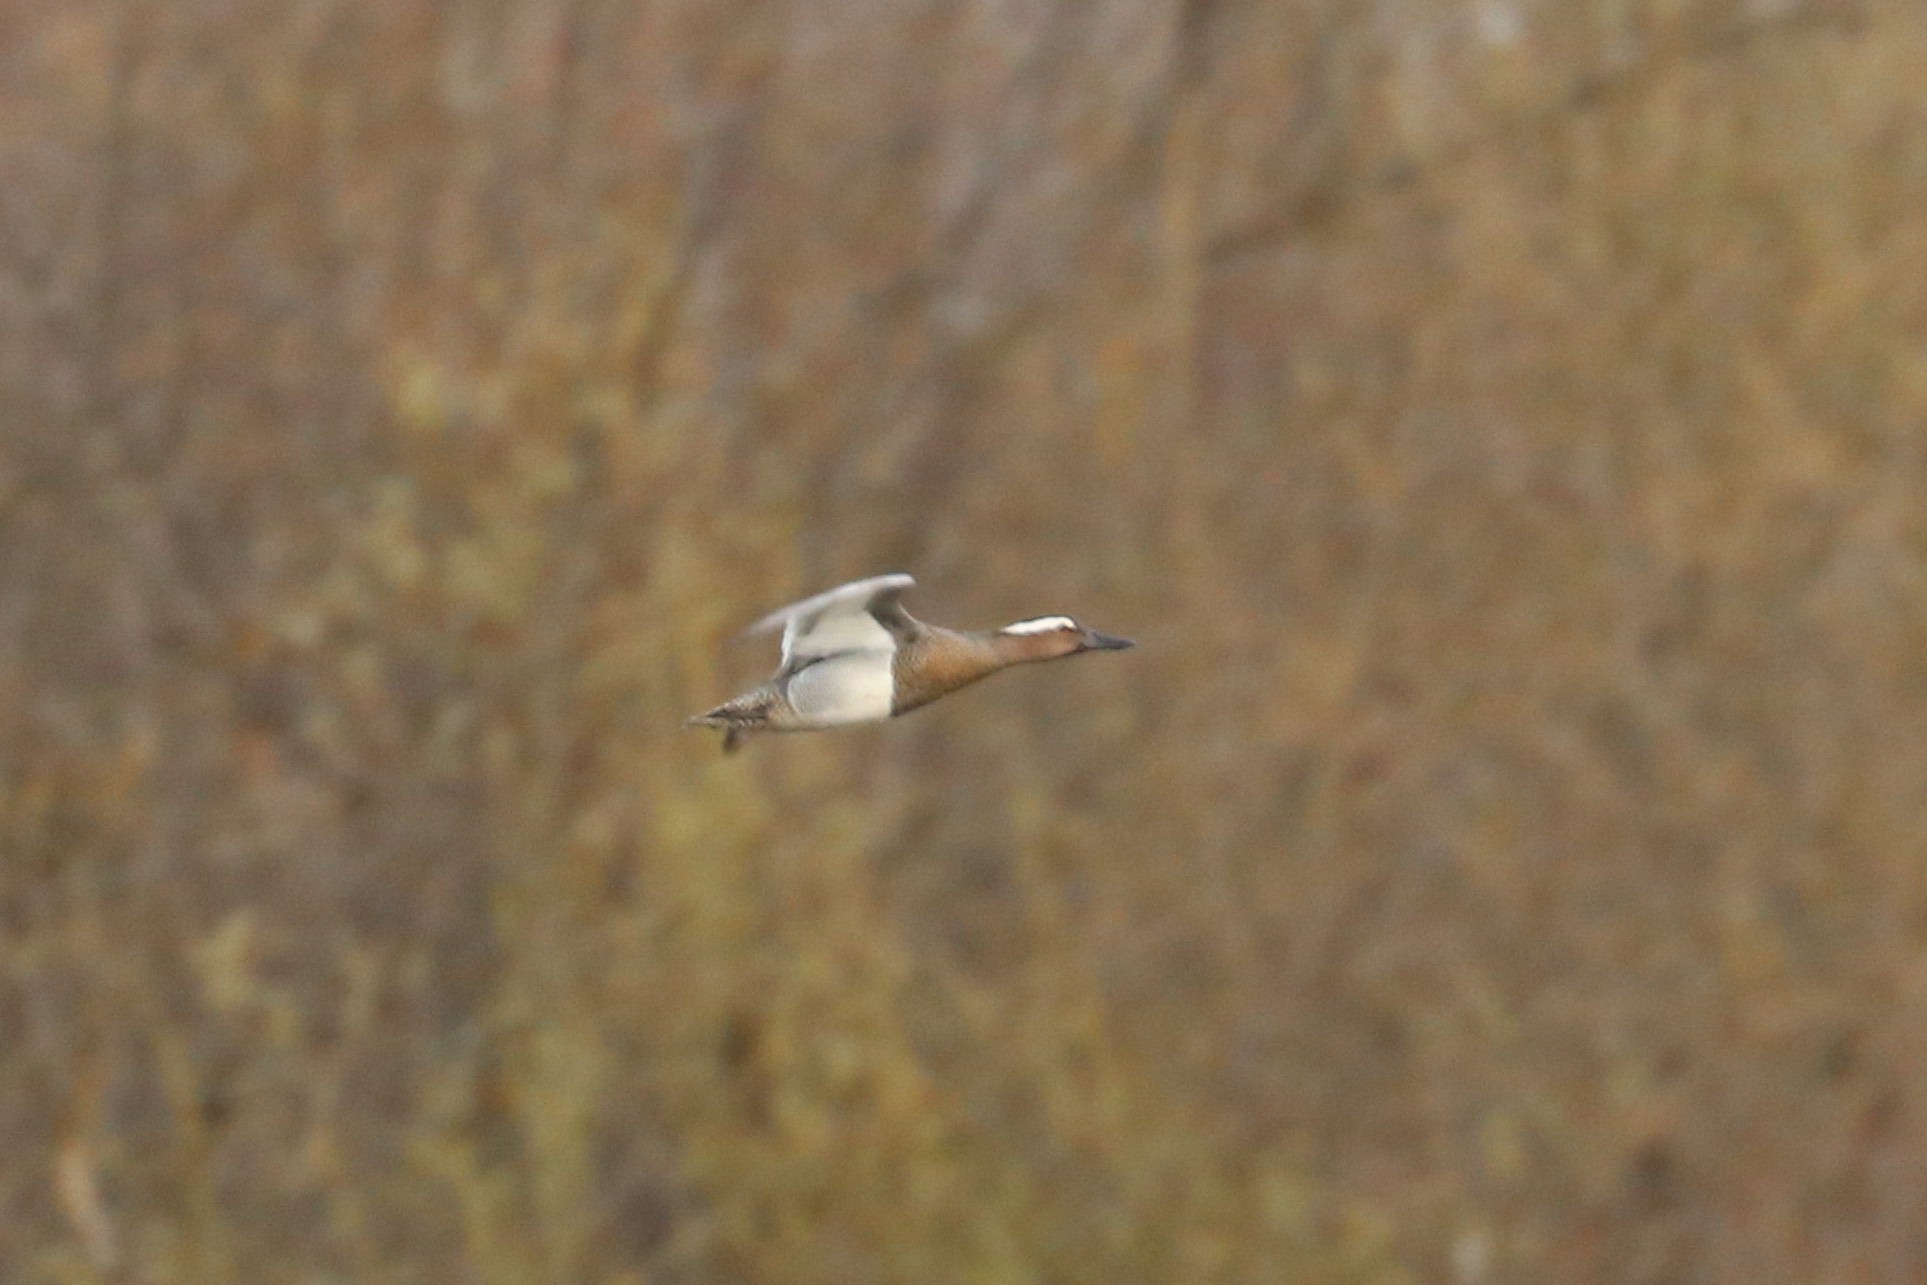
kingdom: Animalia
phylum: Chordata
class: Aves
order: Anseriformes
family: Anatidae
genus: Spatula
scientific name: Spatula querquedula
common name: Garganey
